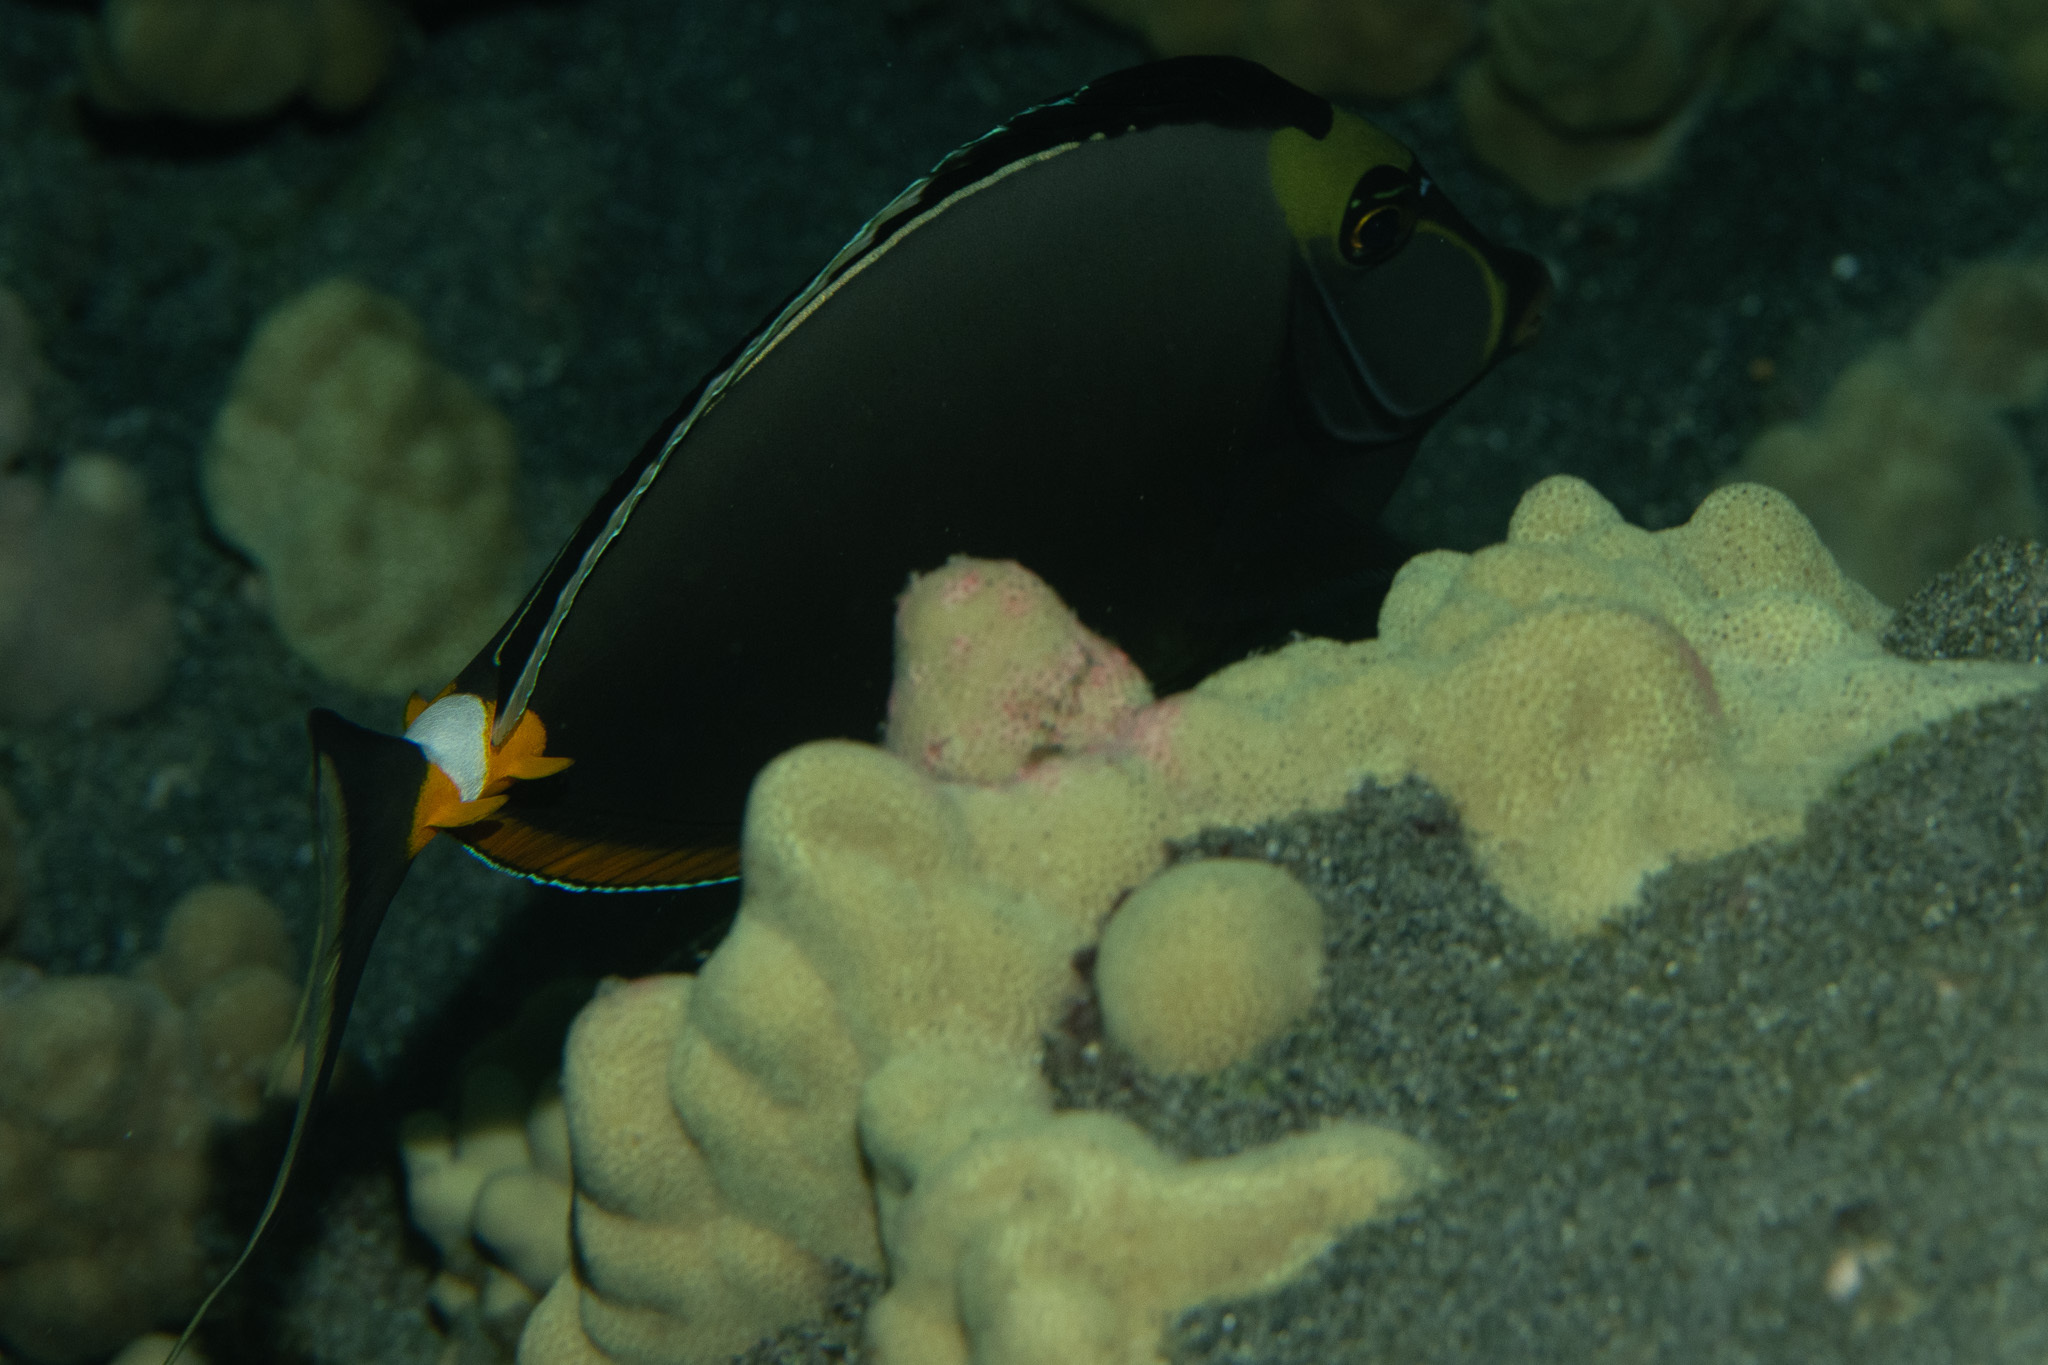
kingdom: Animalia
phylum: Chordata
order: Perciformes
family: Acanthuridae
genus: Naso
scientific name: Naso lituratus
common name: Orangespine unicornfish
